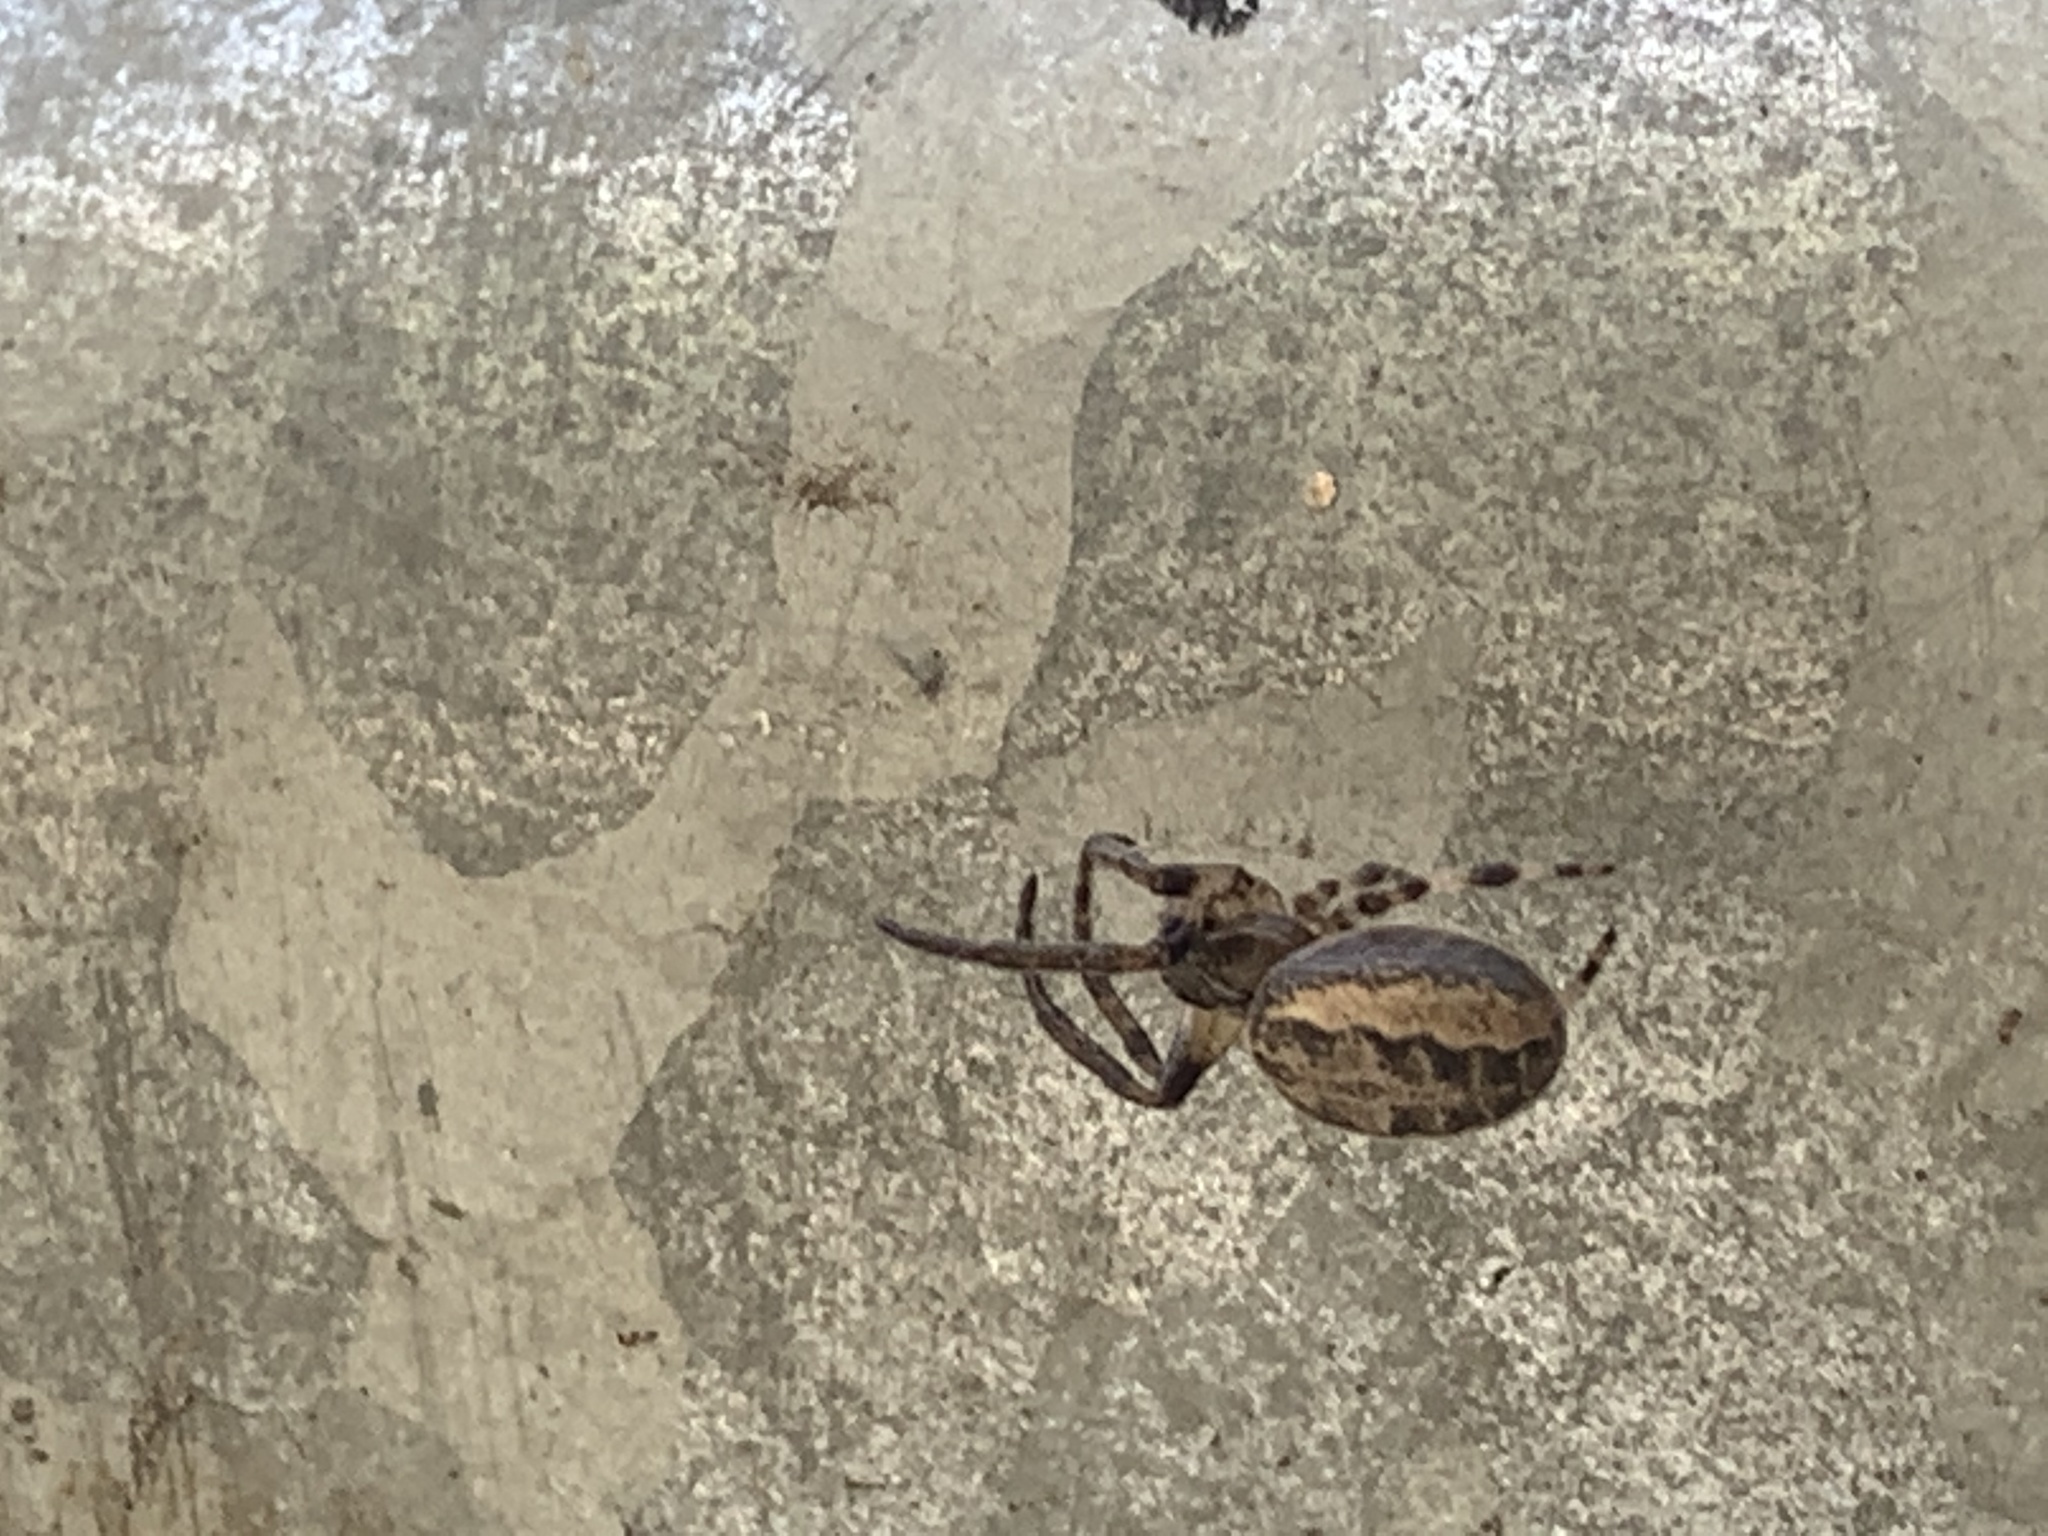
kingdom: Animalia
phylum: Arthropoda
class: Arachnida
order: Araneae
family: Araneidae
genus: Larinioides
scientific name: Larinioides cornutus
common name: Furrow orbweaver
